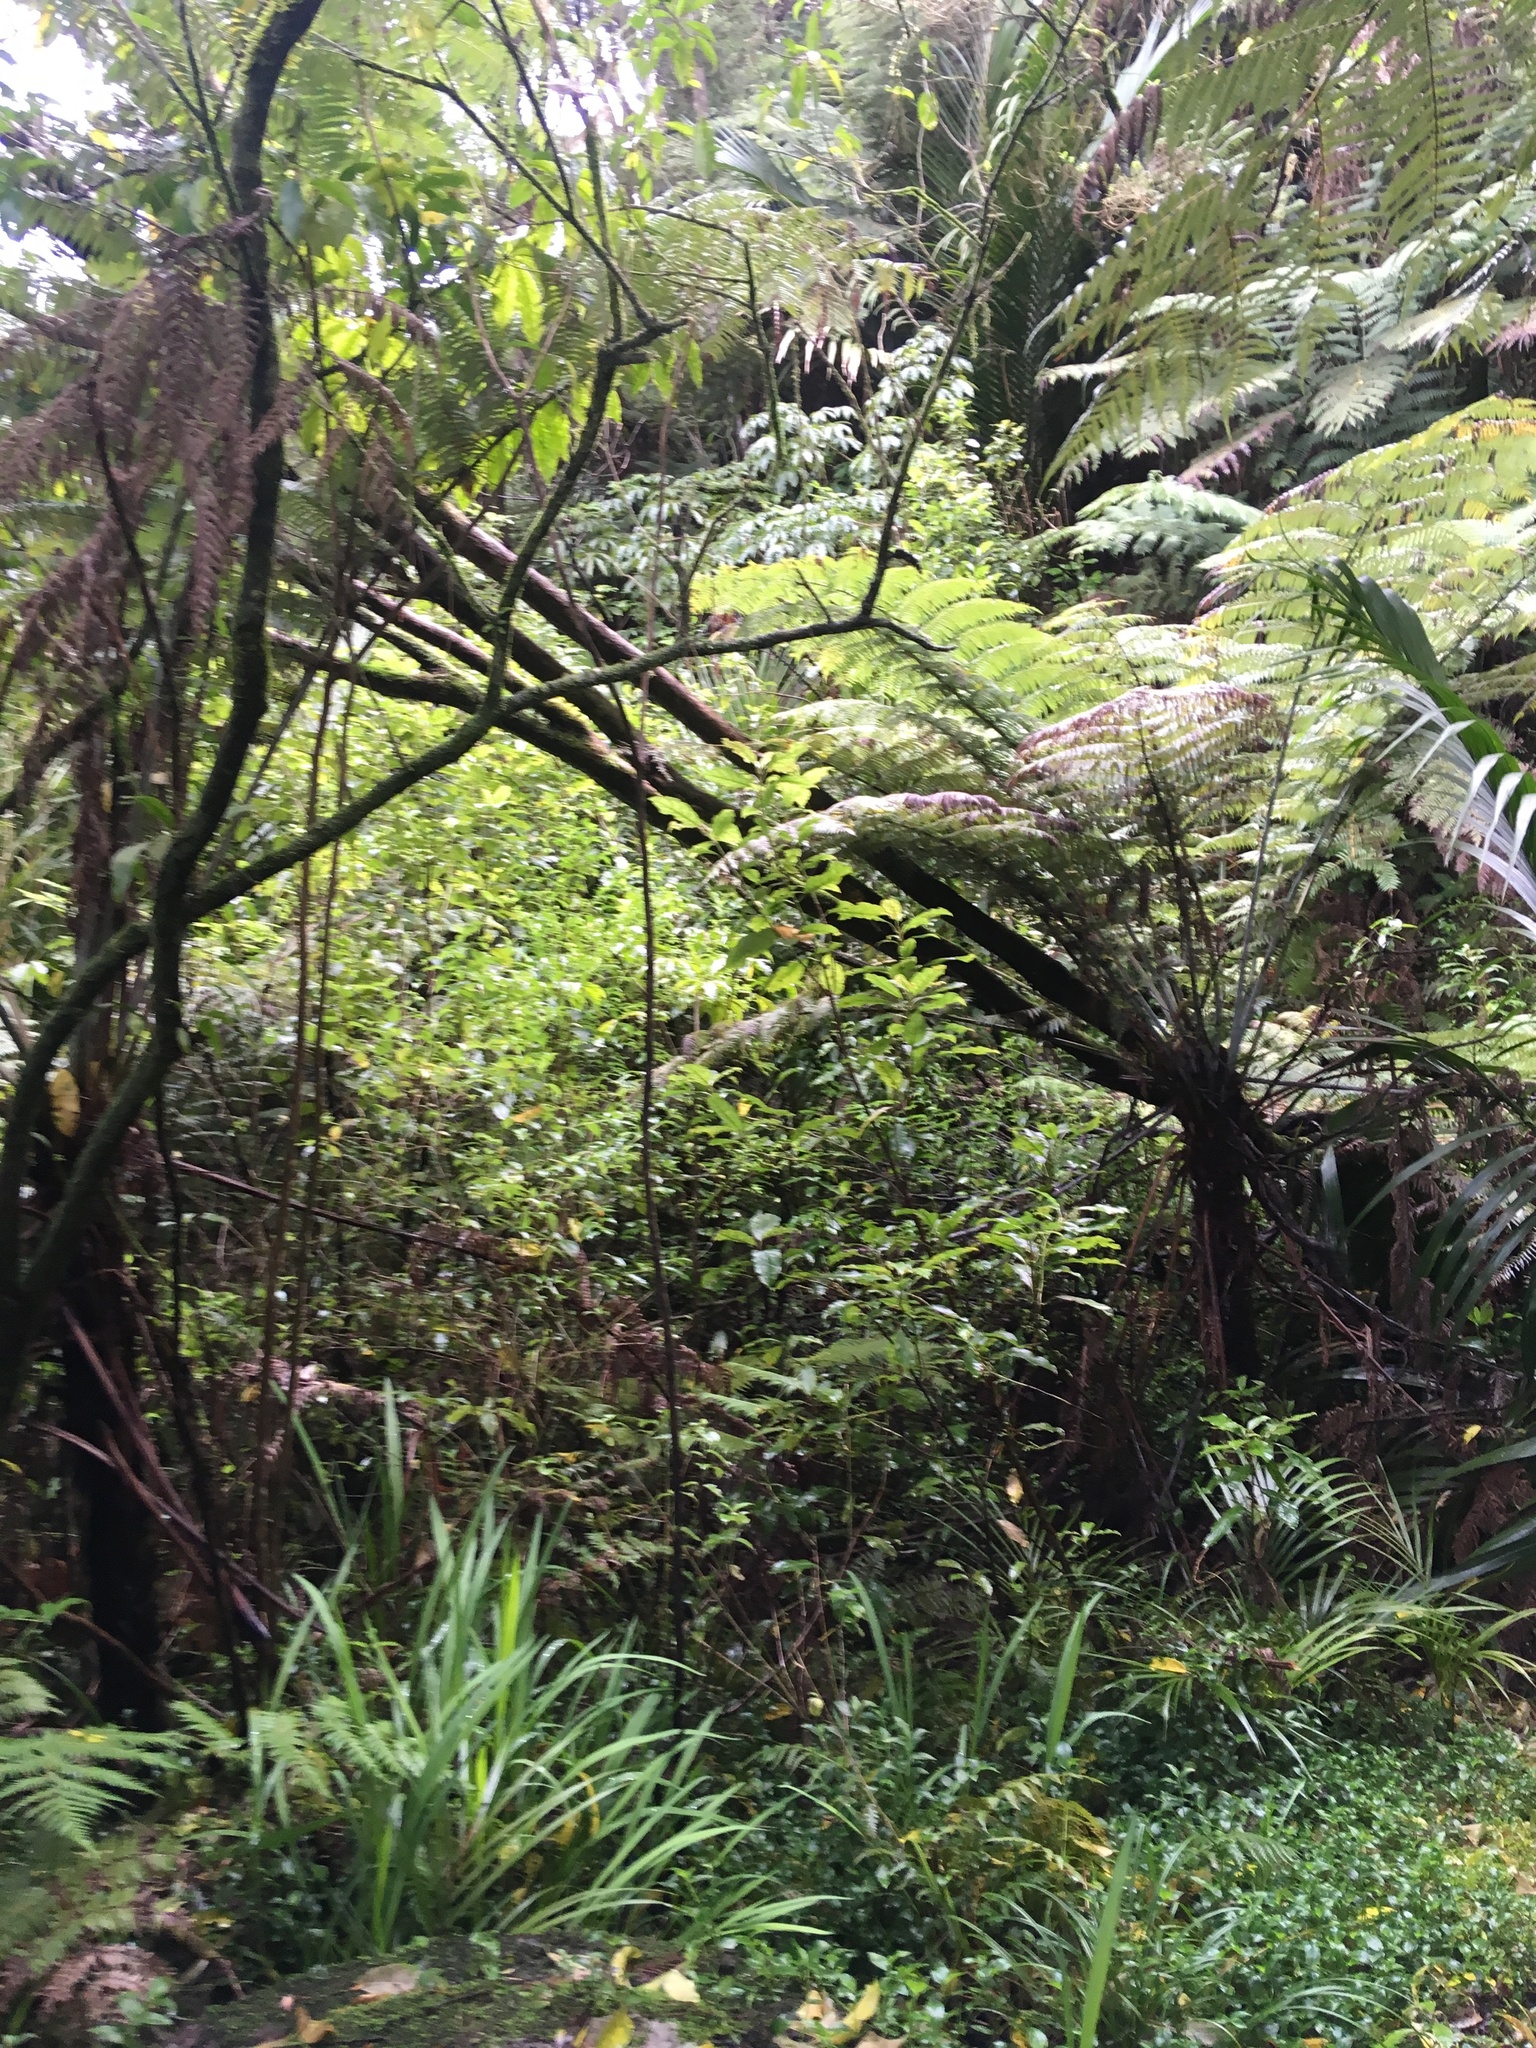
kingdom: Plantae
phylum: Tracheophyta
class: Liliopsida
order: Commelinales
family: Commelinaceae
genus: Tradescantia
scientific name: Tradescantia fluminensis
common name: Wandering-jew
